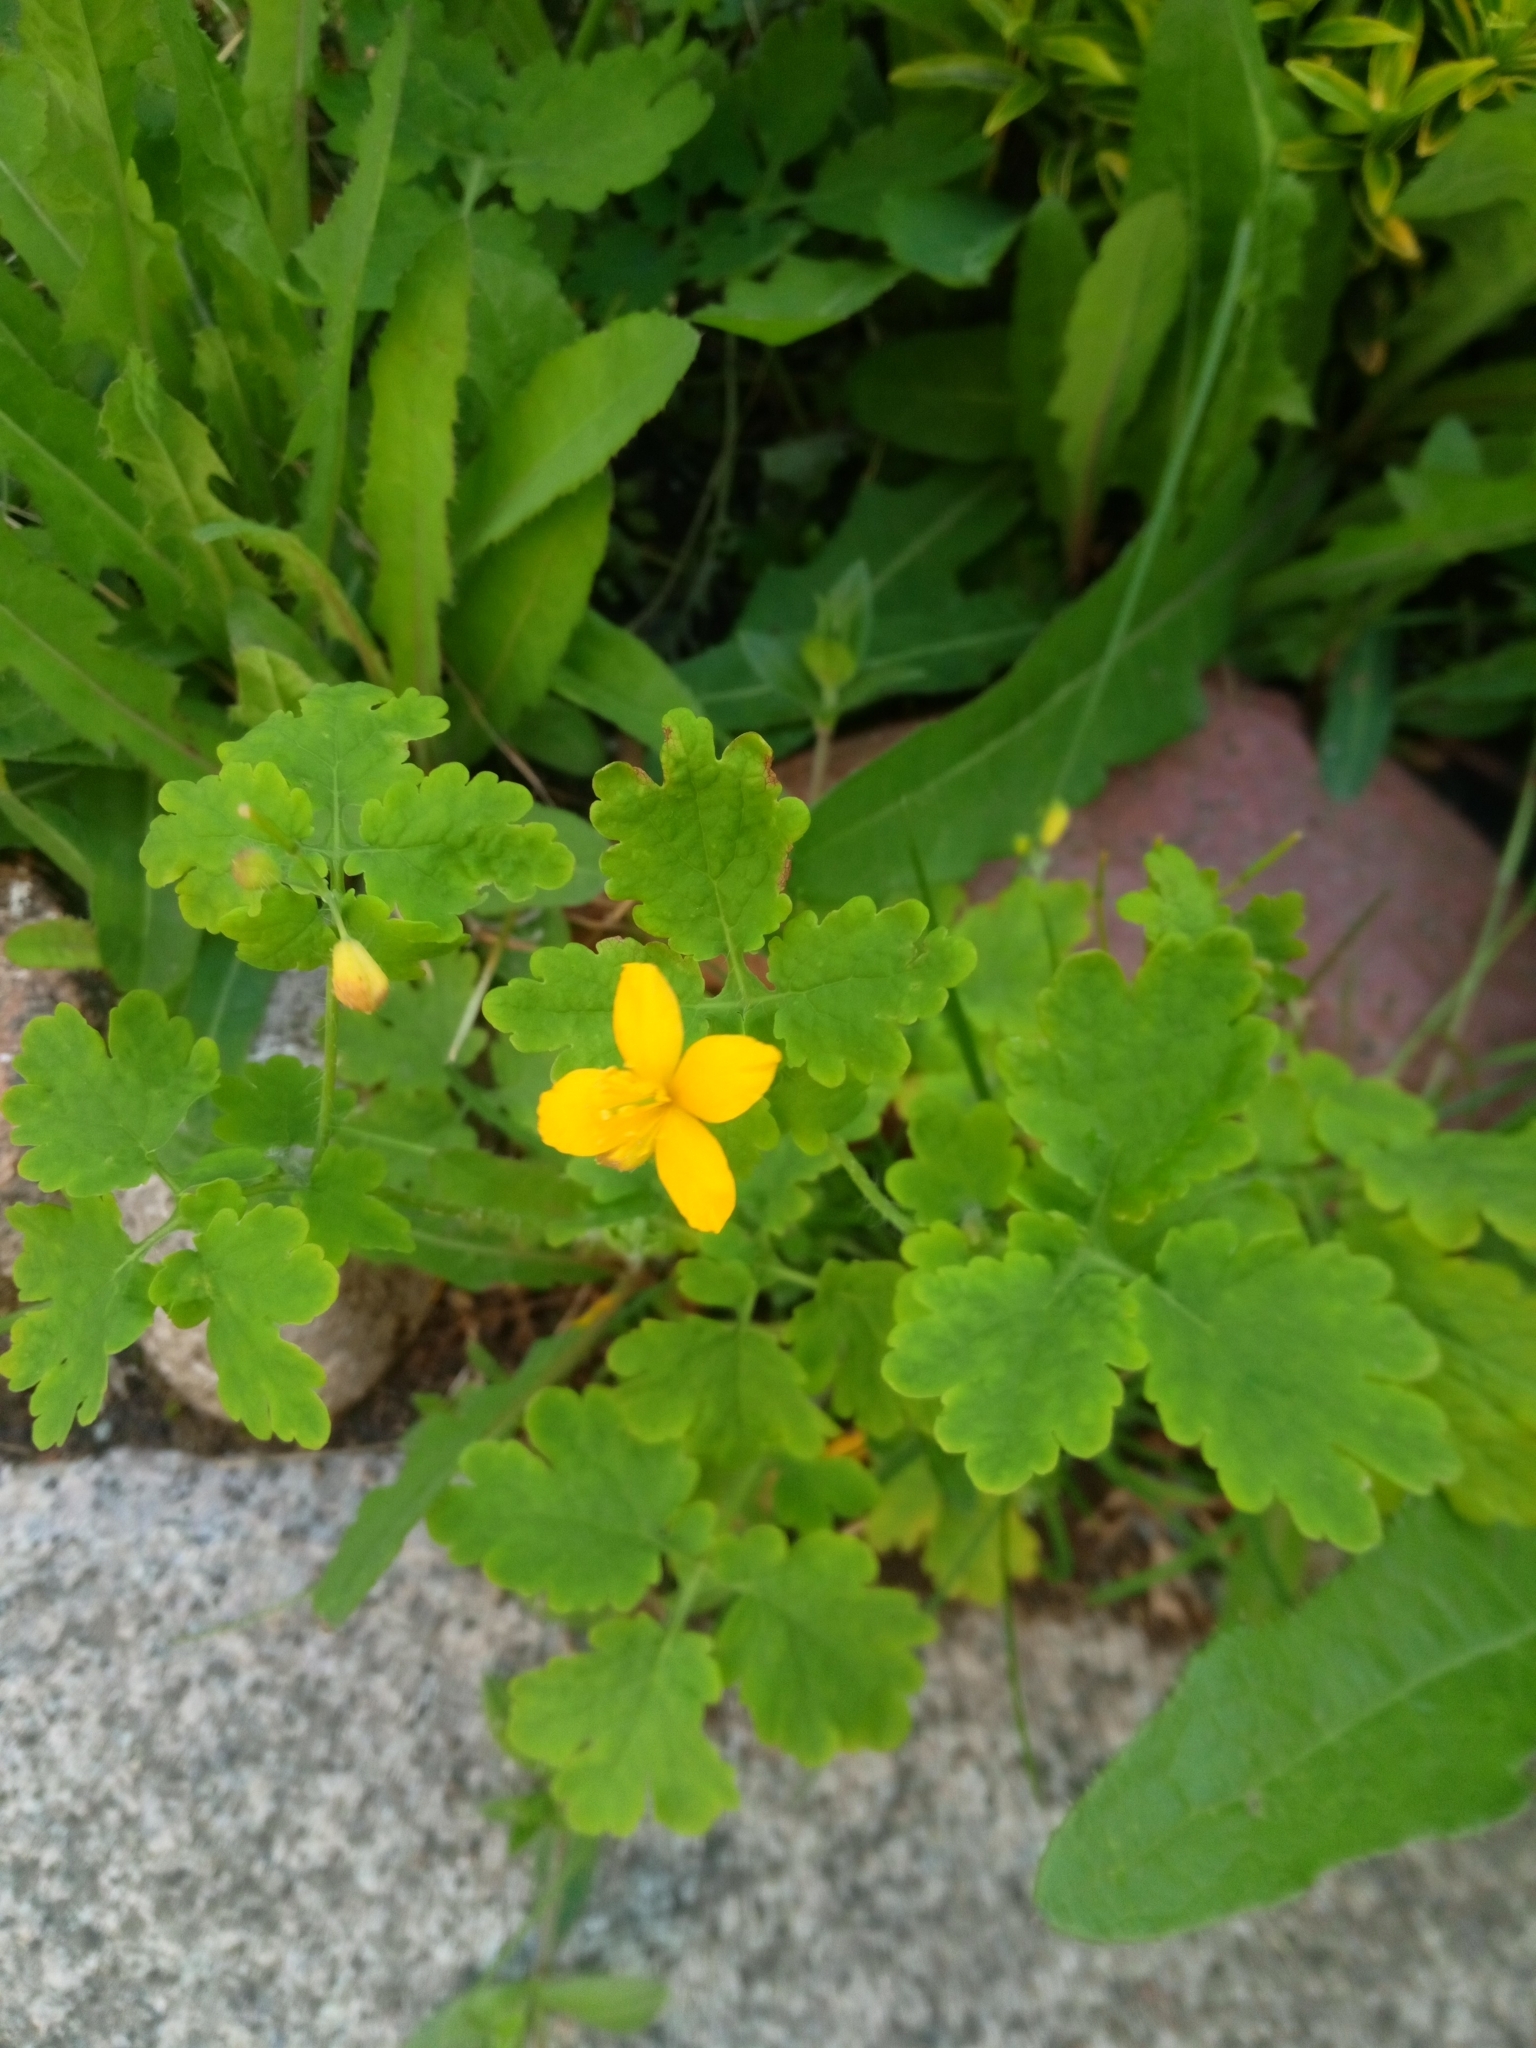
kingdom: Plantae
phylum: Tracheophyta
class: Magnoliopsida
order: Ranunculales
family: Papaveraceae
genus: Chelidonium
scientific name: Chelidonium majus
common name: Greater celandine
